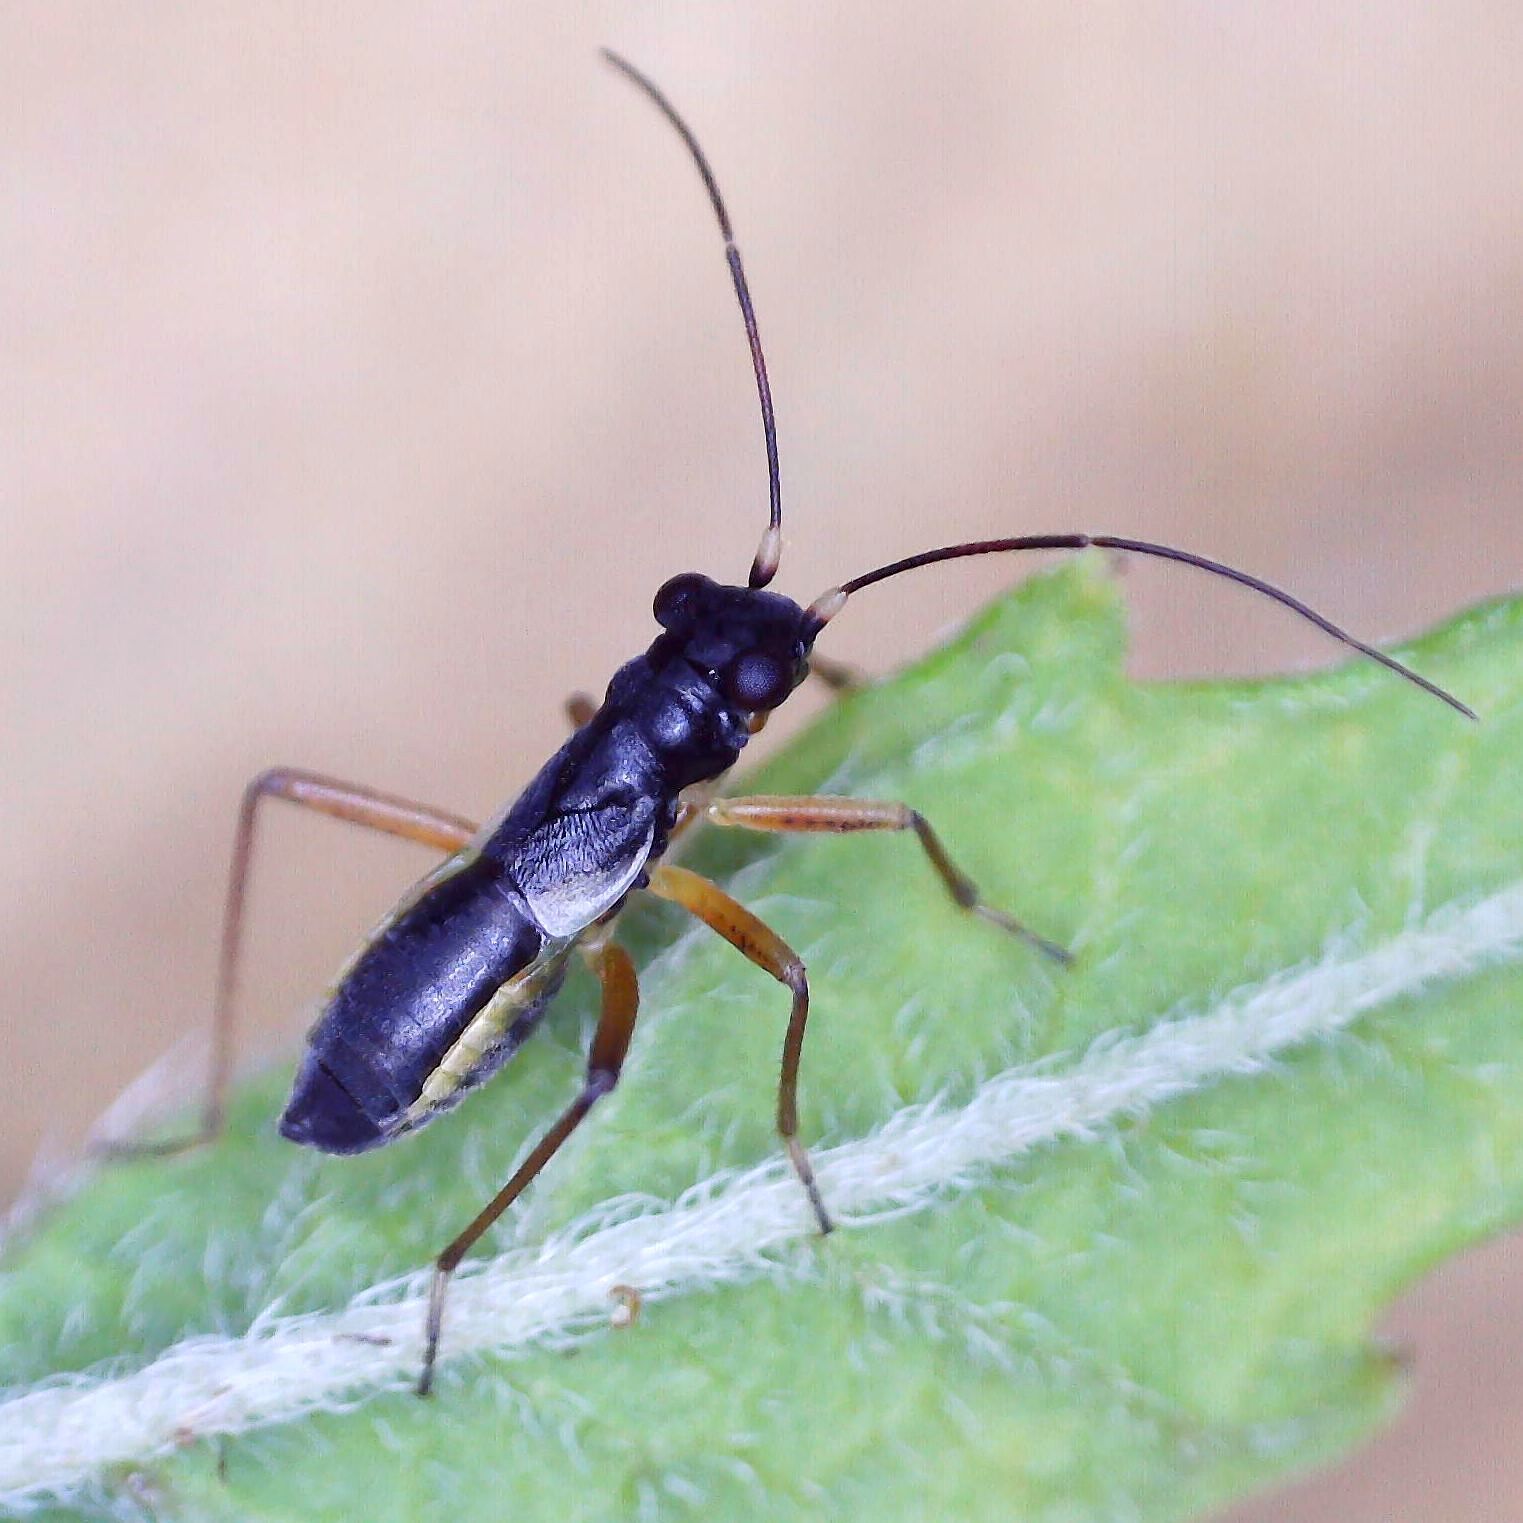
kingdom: Animalia
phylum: Arthropoda
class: Insecta
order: Hemiptera
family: Miridae
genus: Pithanus
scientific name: Pithanus maerkelii
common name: Plant bug
